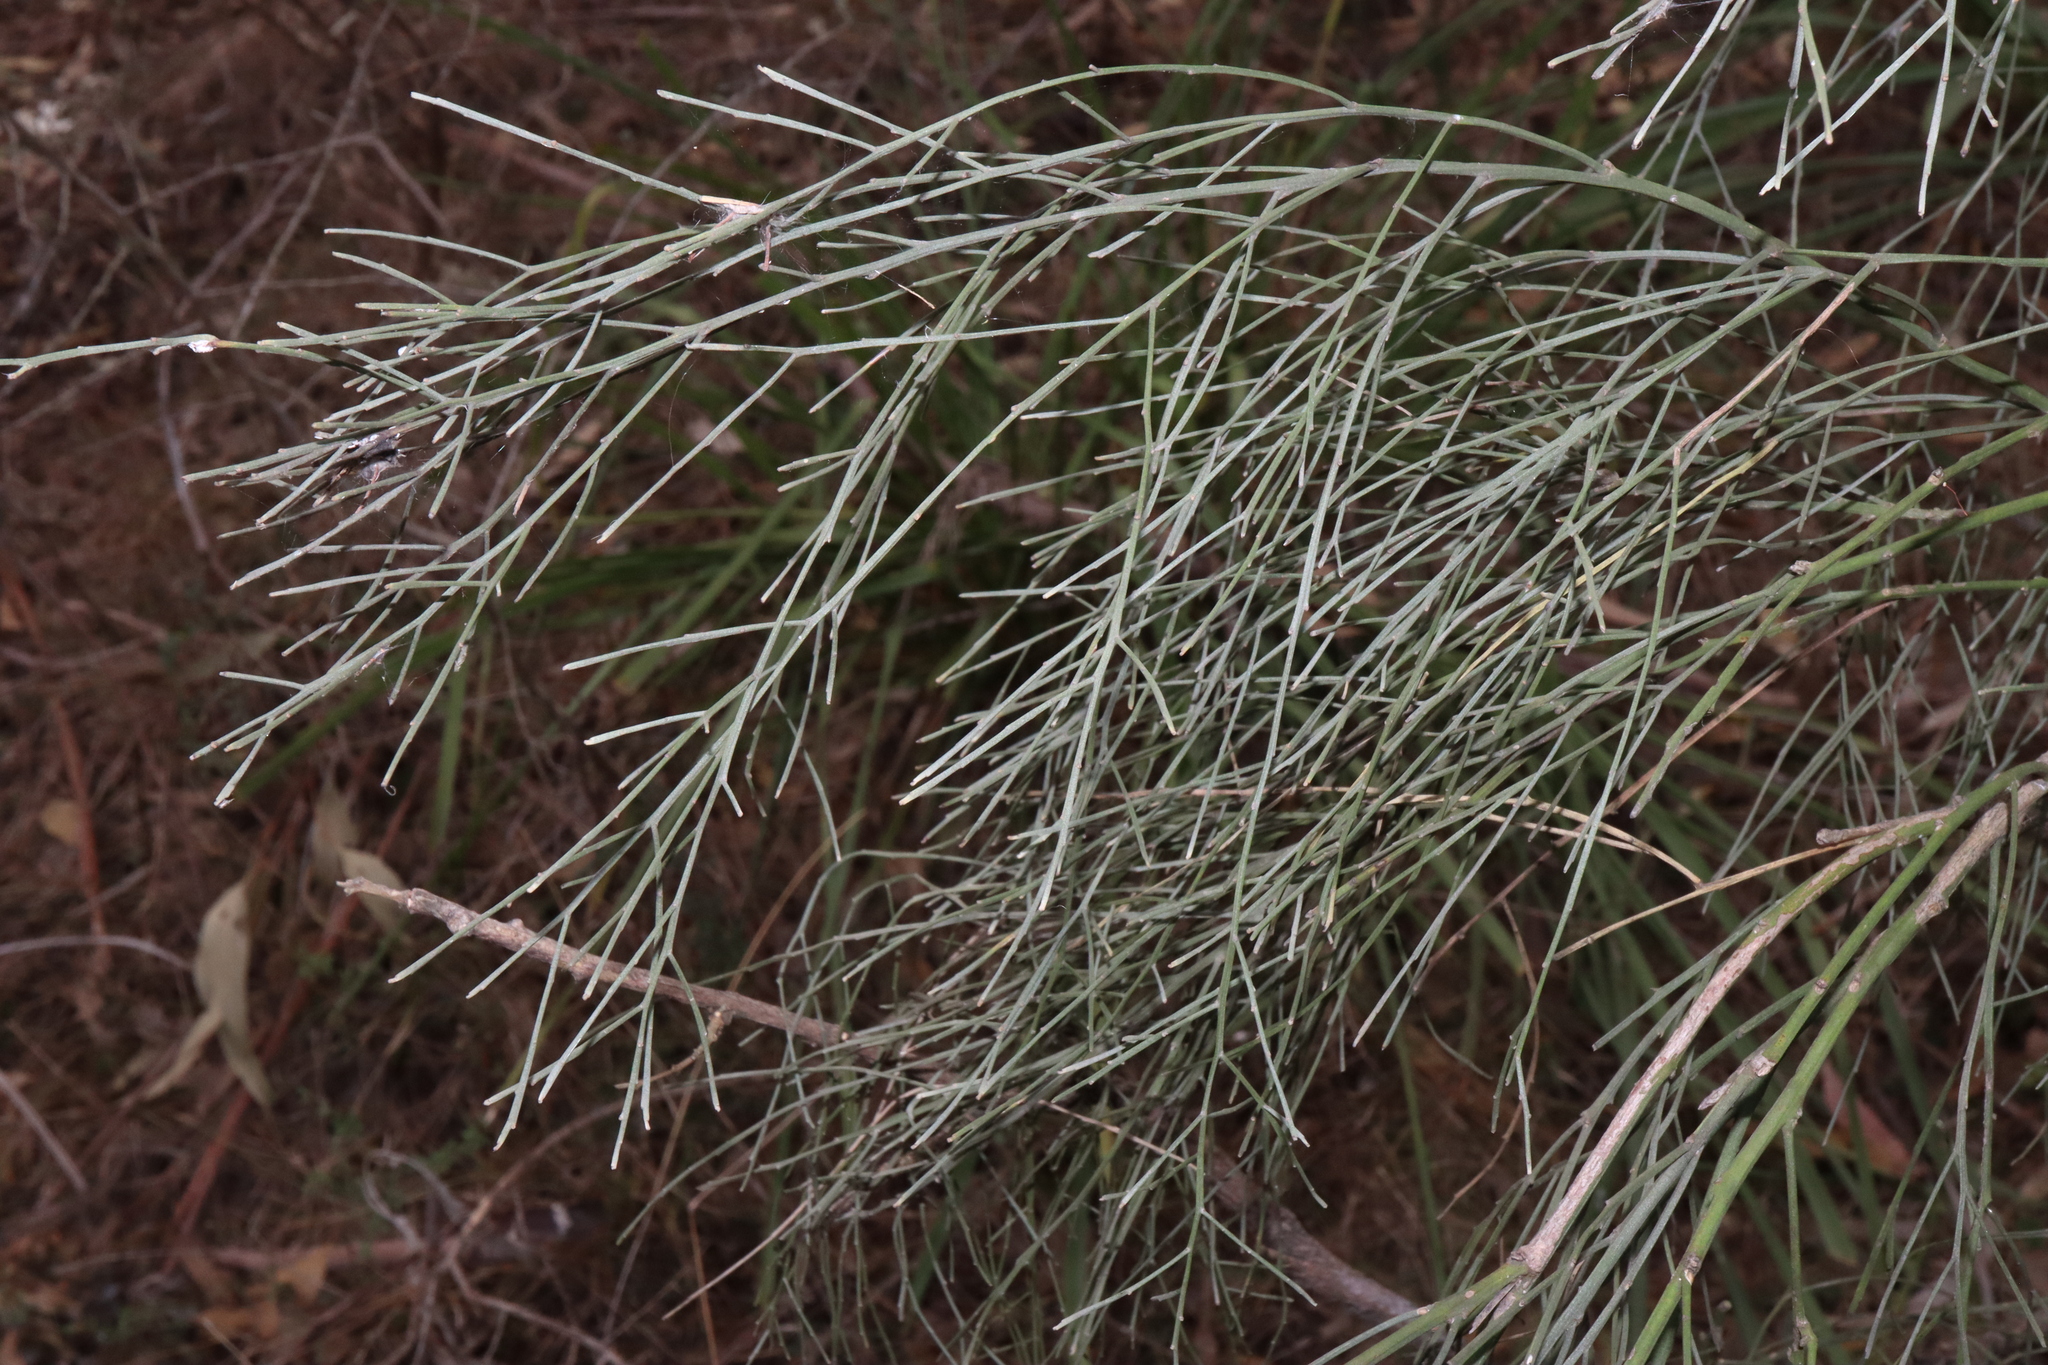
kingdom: Plantae
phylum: Tracheophyta
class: Magnoliopsida
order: Fabales
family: Fabaceae
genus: Jacksonia
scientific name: Jacksonia scoparia
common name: Dogwood
